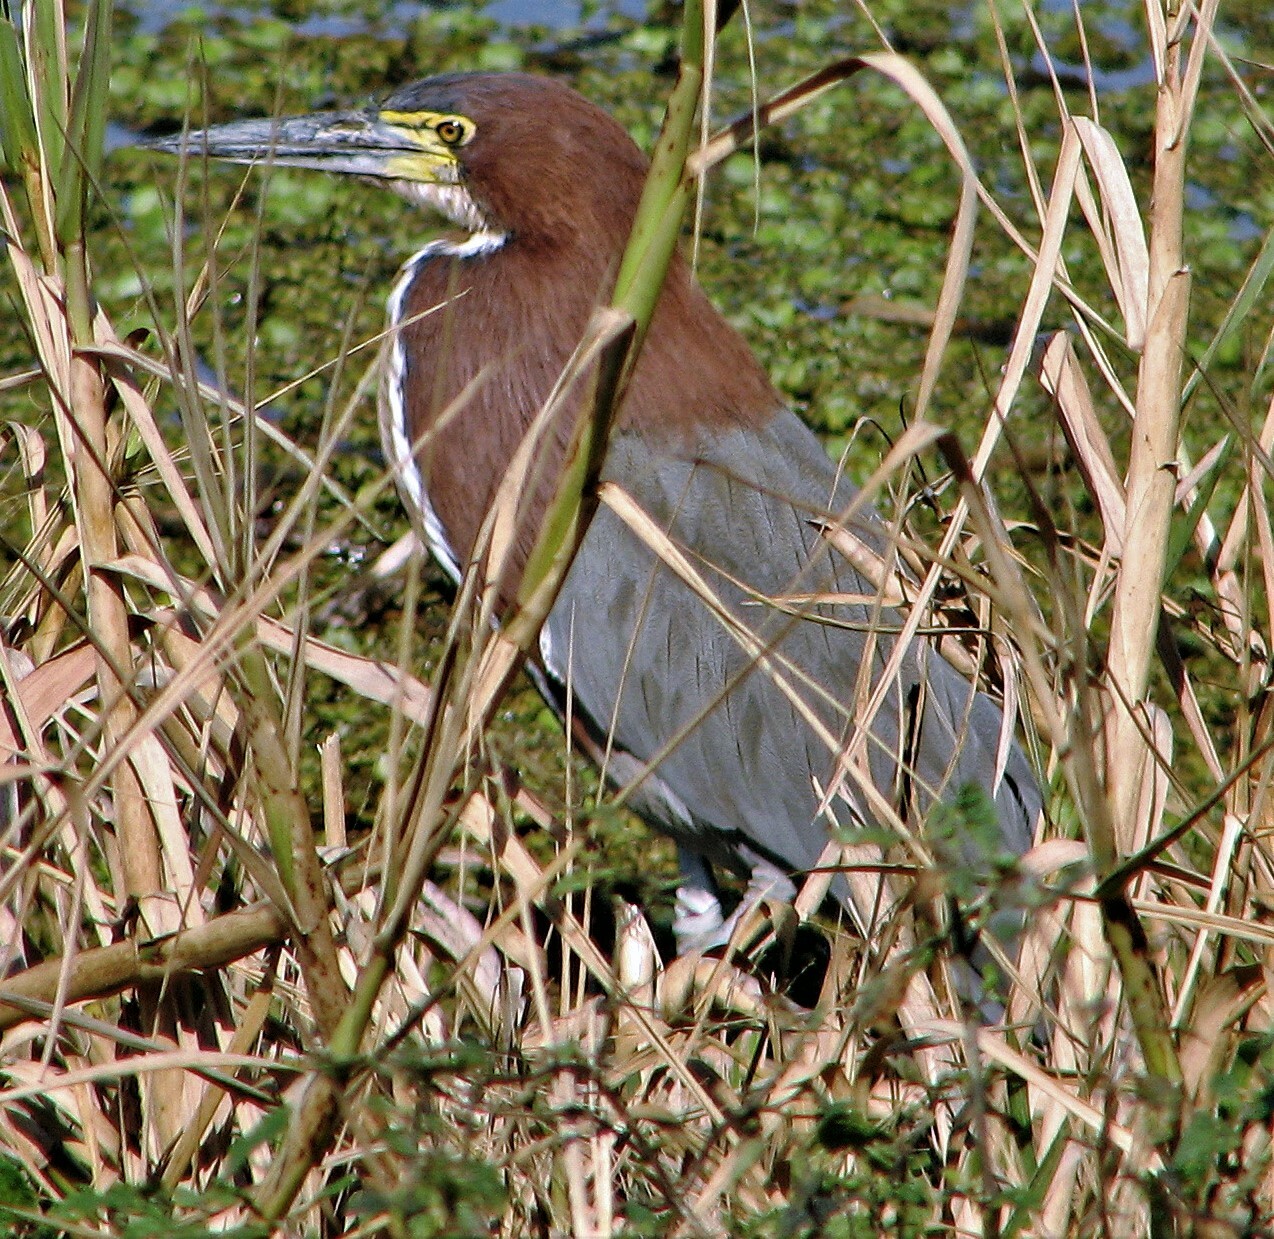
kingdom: Animalia
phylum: Chordata
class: Aves
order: Pelecaniformes
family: Ardeidae
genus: Tigrisoma
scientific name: Tigrisoma lineatum
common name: Rufescent tiger-heron
